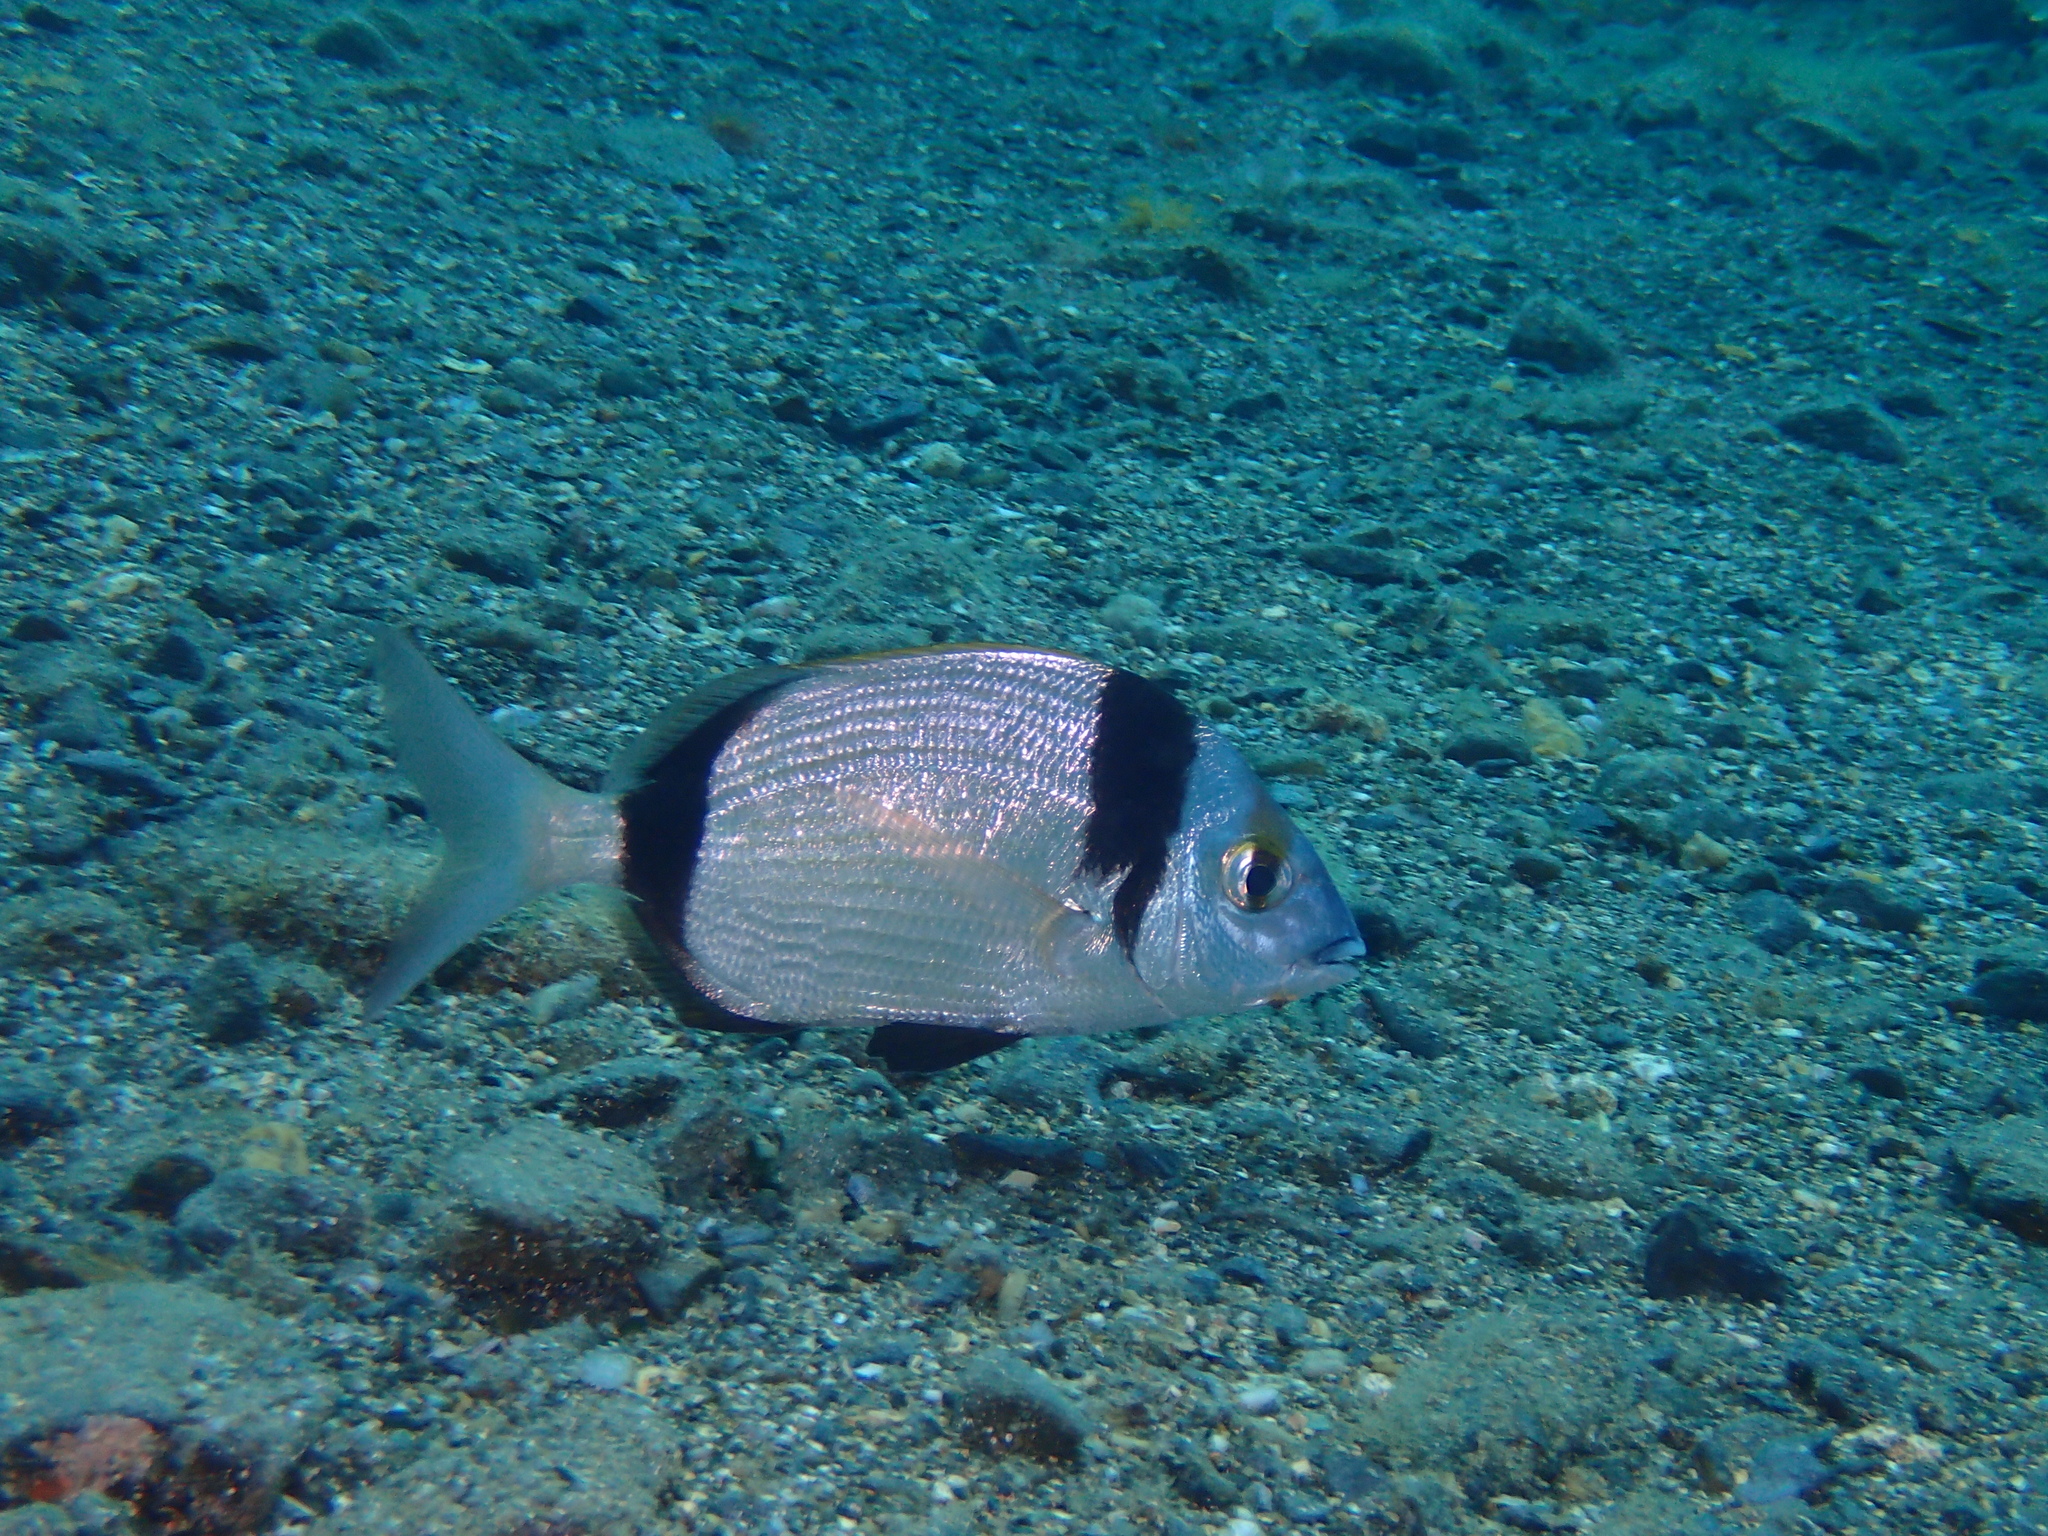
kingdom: Animalia
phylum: Chordata
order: Perciformes
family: Sparidae
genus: Diplodus
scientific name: Diplodus vulgaris
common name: Common two-banded seabream
